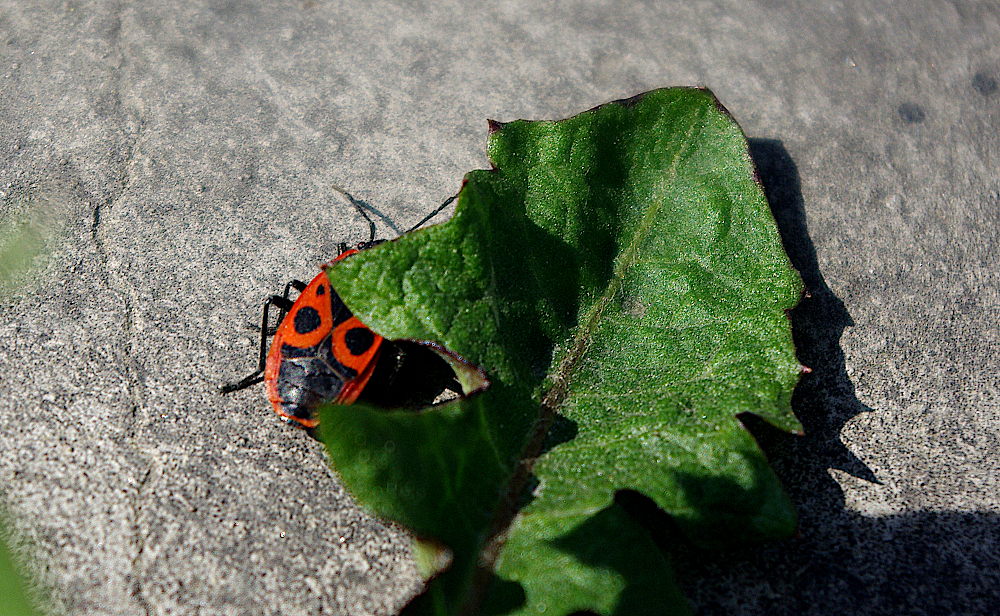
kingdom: Animalia
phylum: Arthropoda
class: Insecta
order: Hemiptera
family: Pyrrhocoridae
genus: Pyrrhocoris
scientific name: Pyrrhocoris apterus
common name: Firebug
